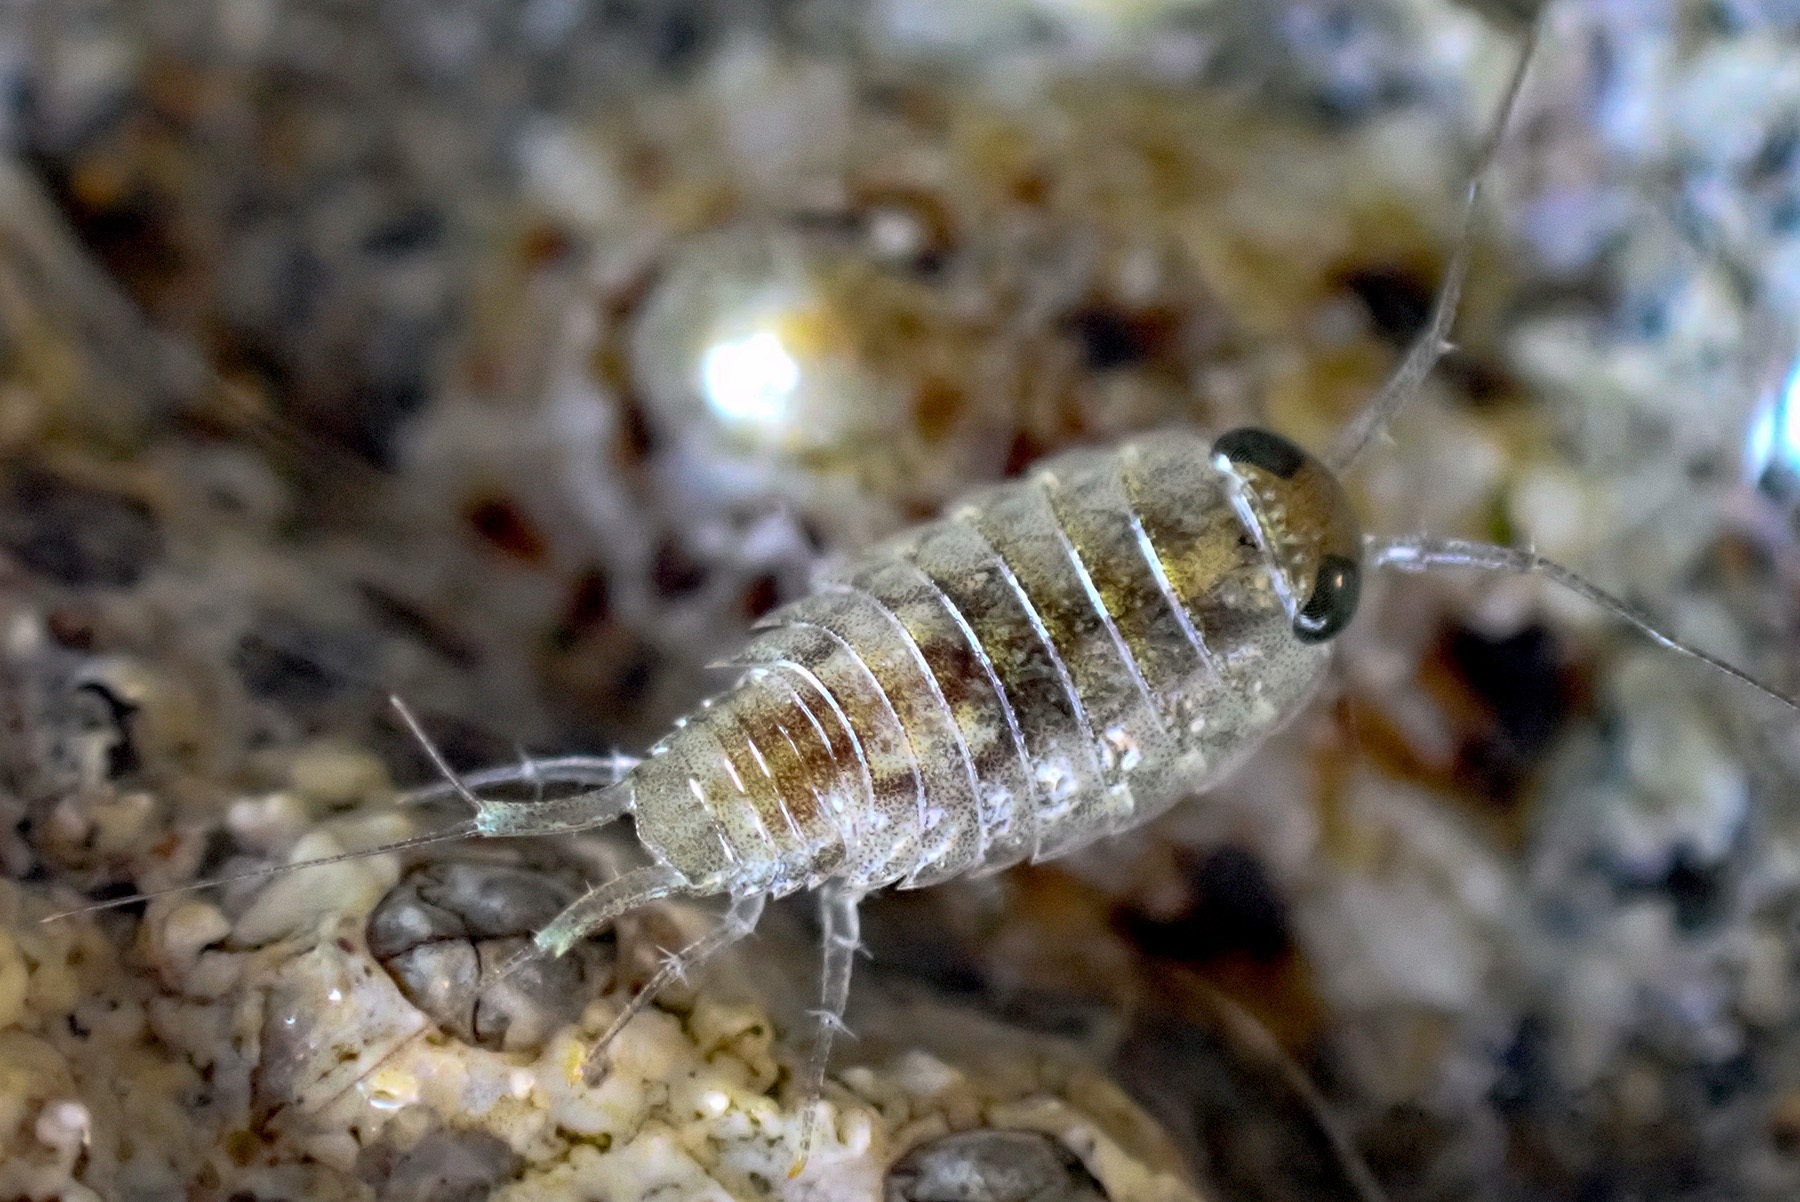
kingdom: Animalia
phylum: Arthropoda
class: Malacostraca
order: Isopoda
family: Ligiidae
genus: Ligia
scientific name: Ligia italica
